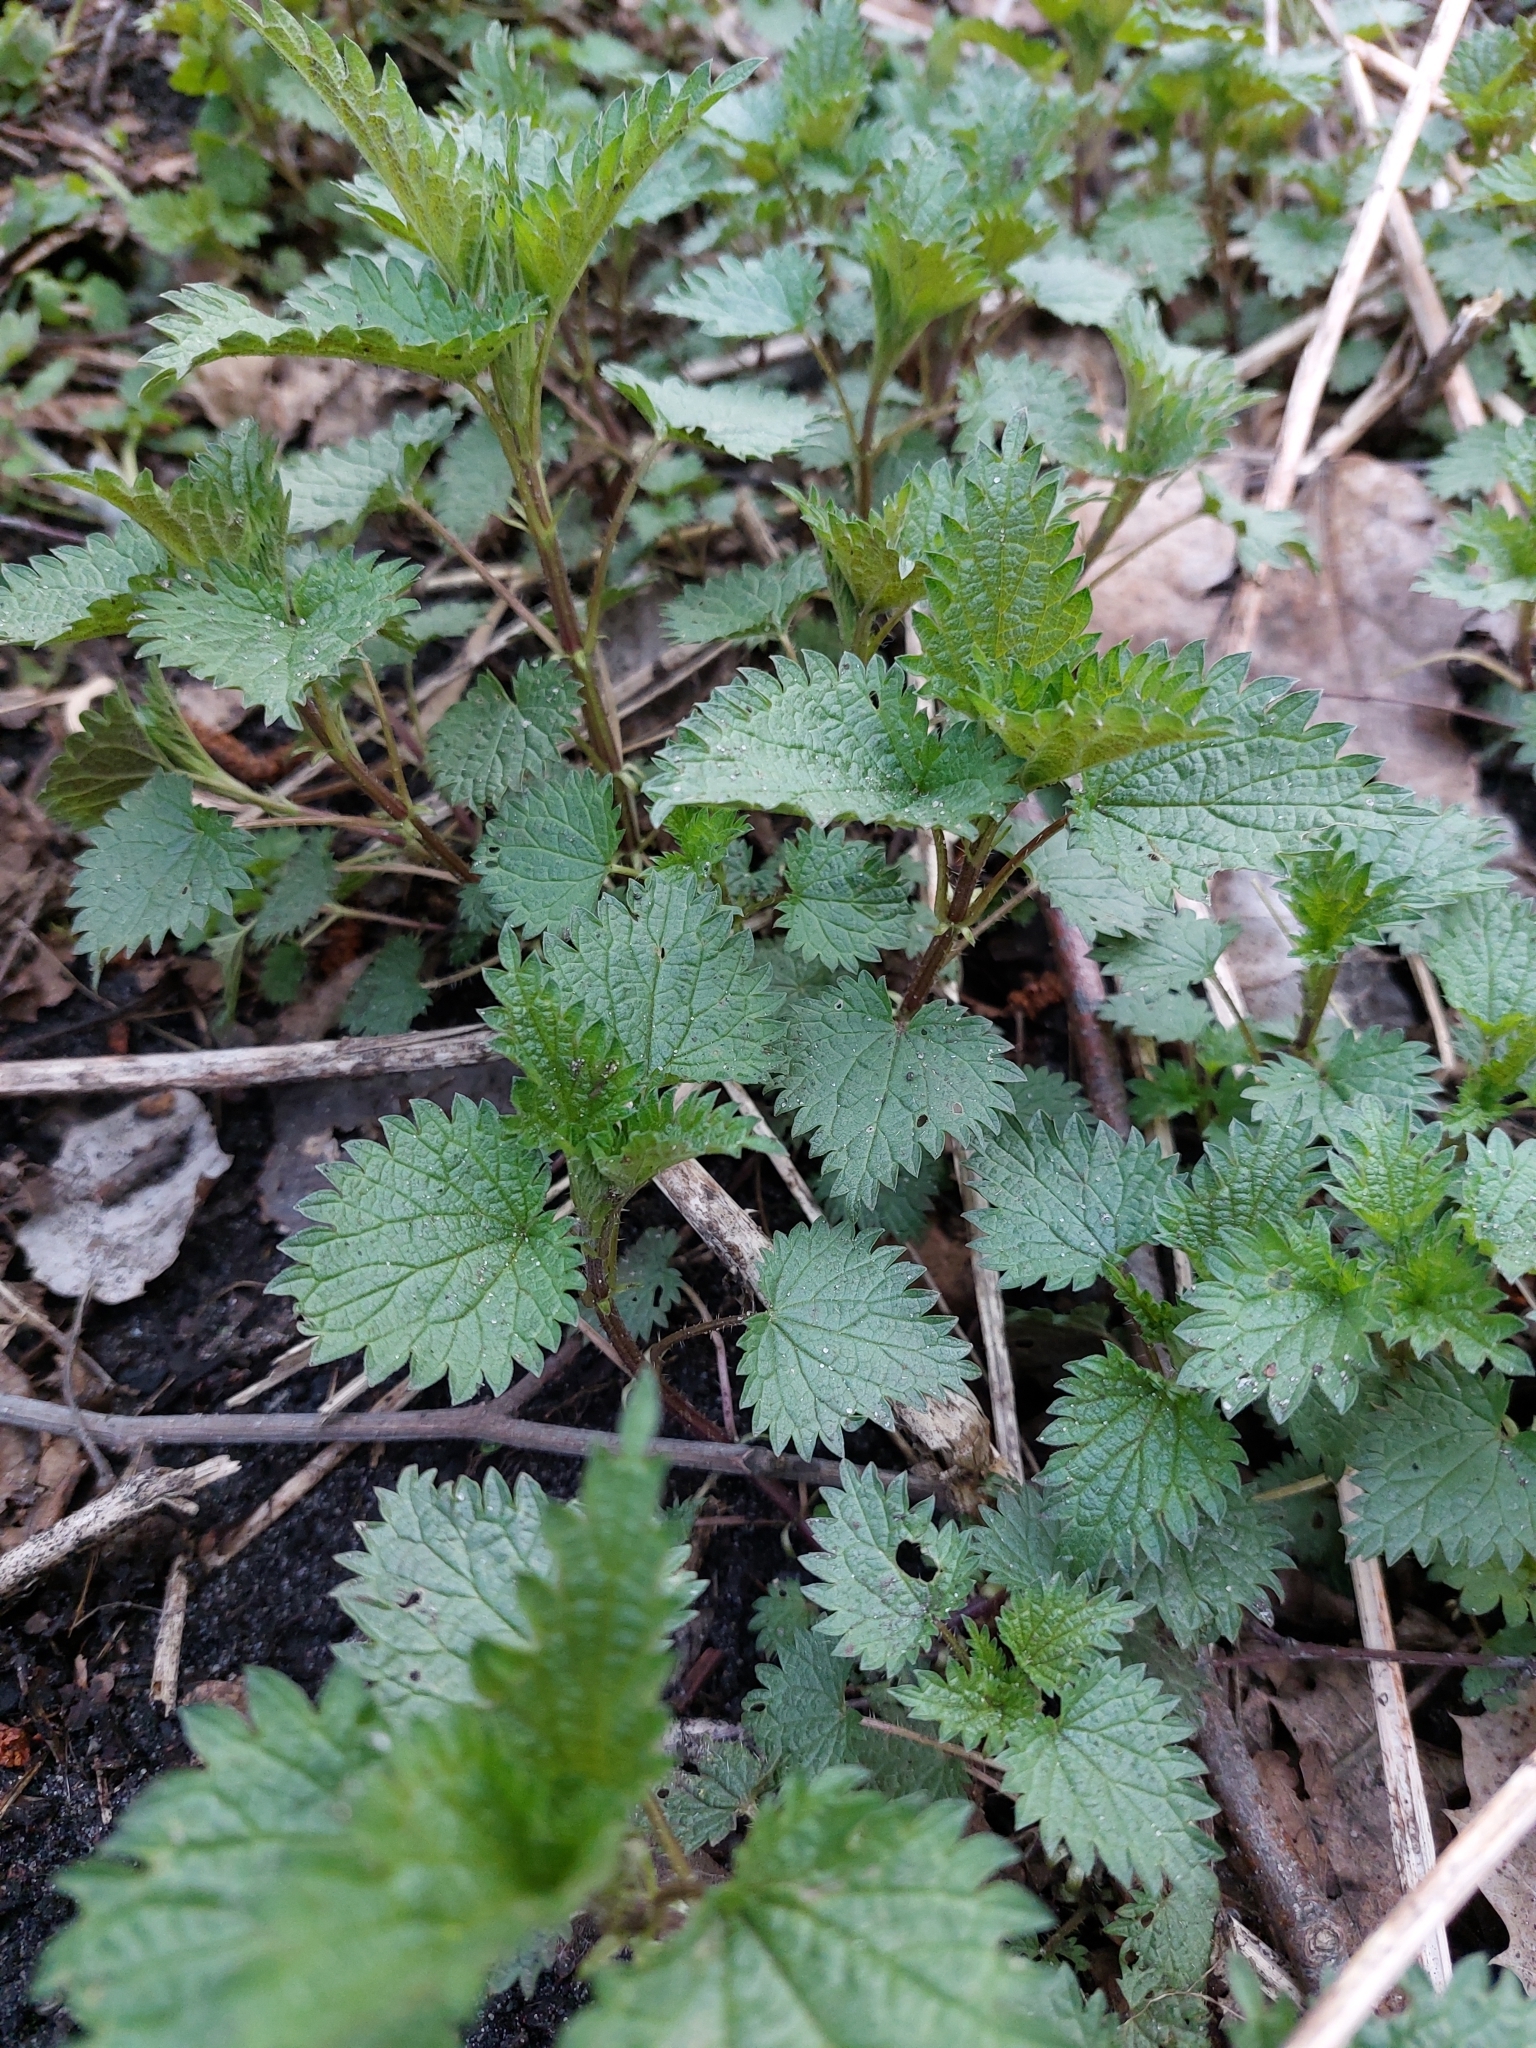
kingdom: Plantae
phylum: Tracheophyta
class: Magnoliopsida
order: Rosales
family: Urticaceae
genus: Urtica
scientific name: Urtica dioica
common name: Common nettle
